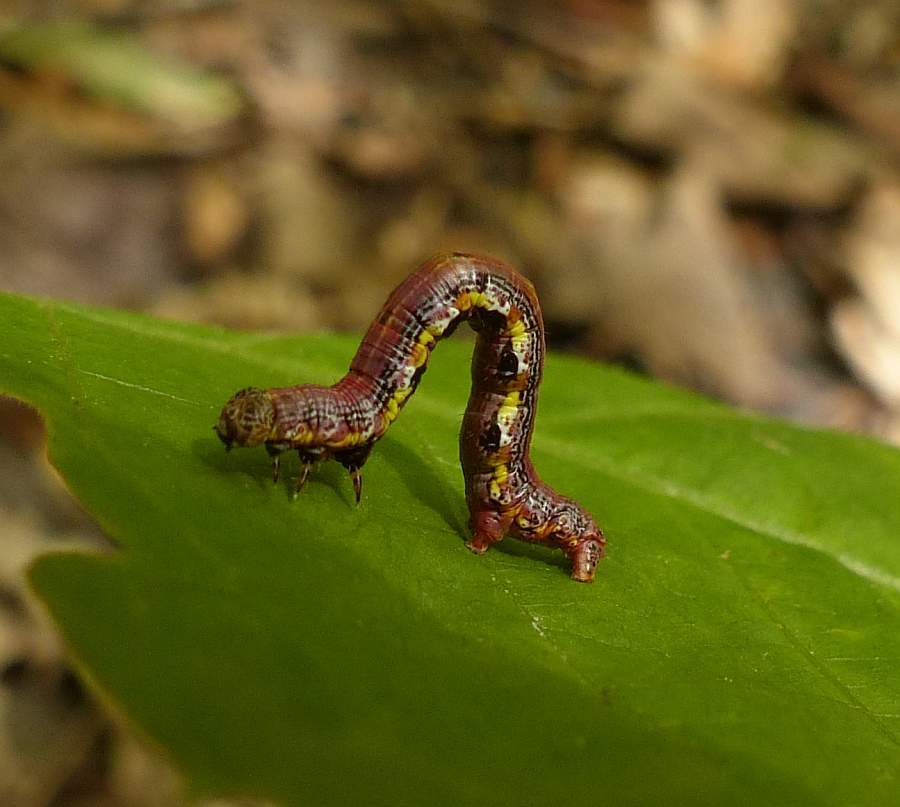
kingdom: Animalia
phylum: Arthropoda
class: Insecta
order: Lepidoptera
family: Geometridae
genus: Macaria
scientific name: Macaria exauspicata
